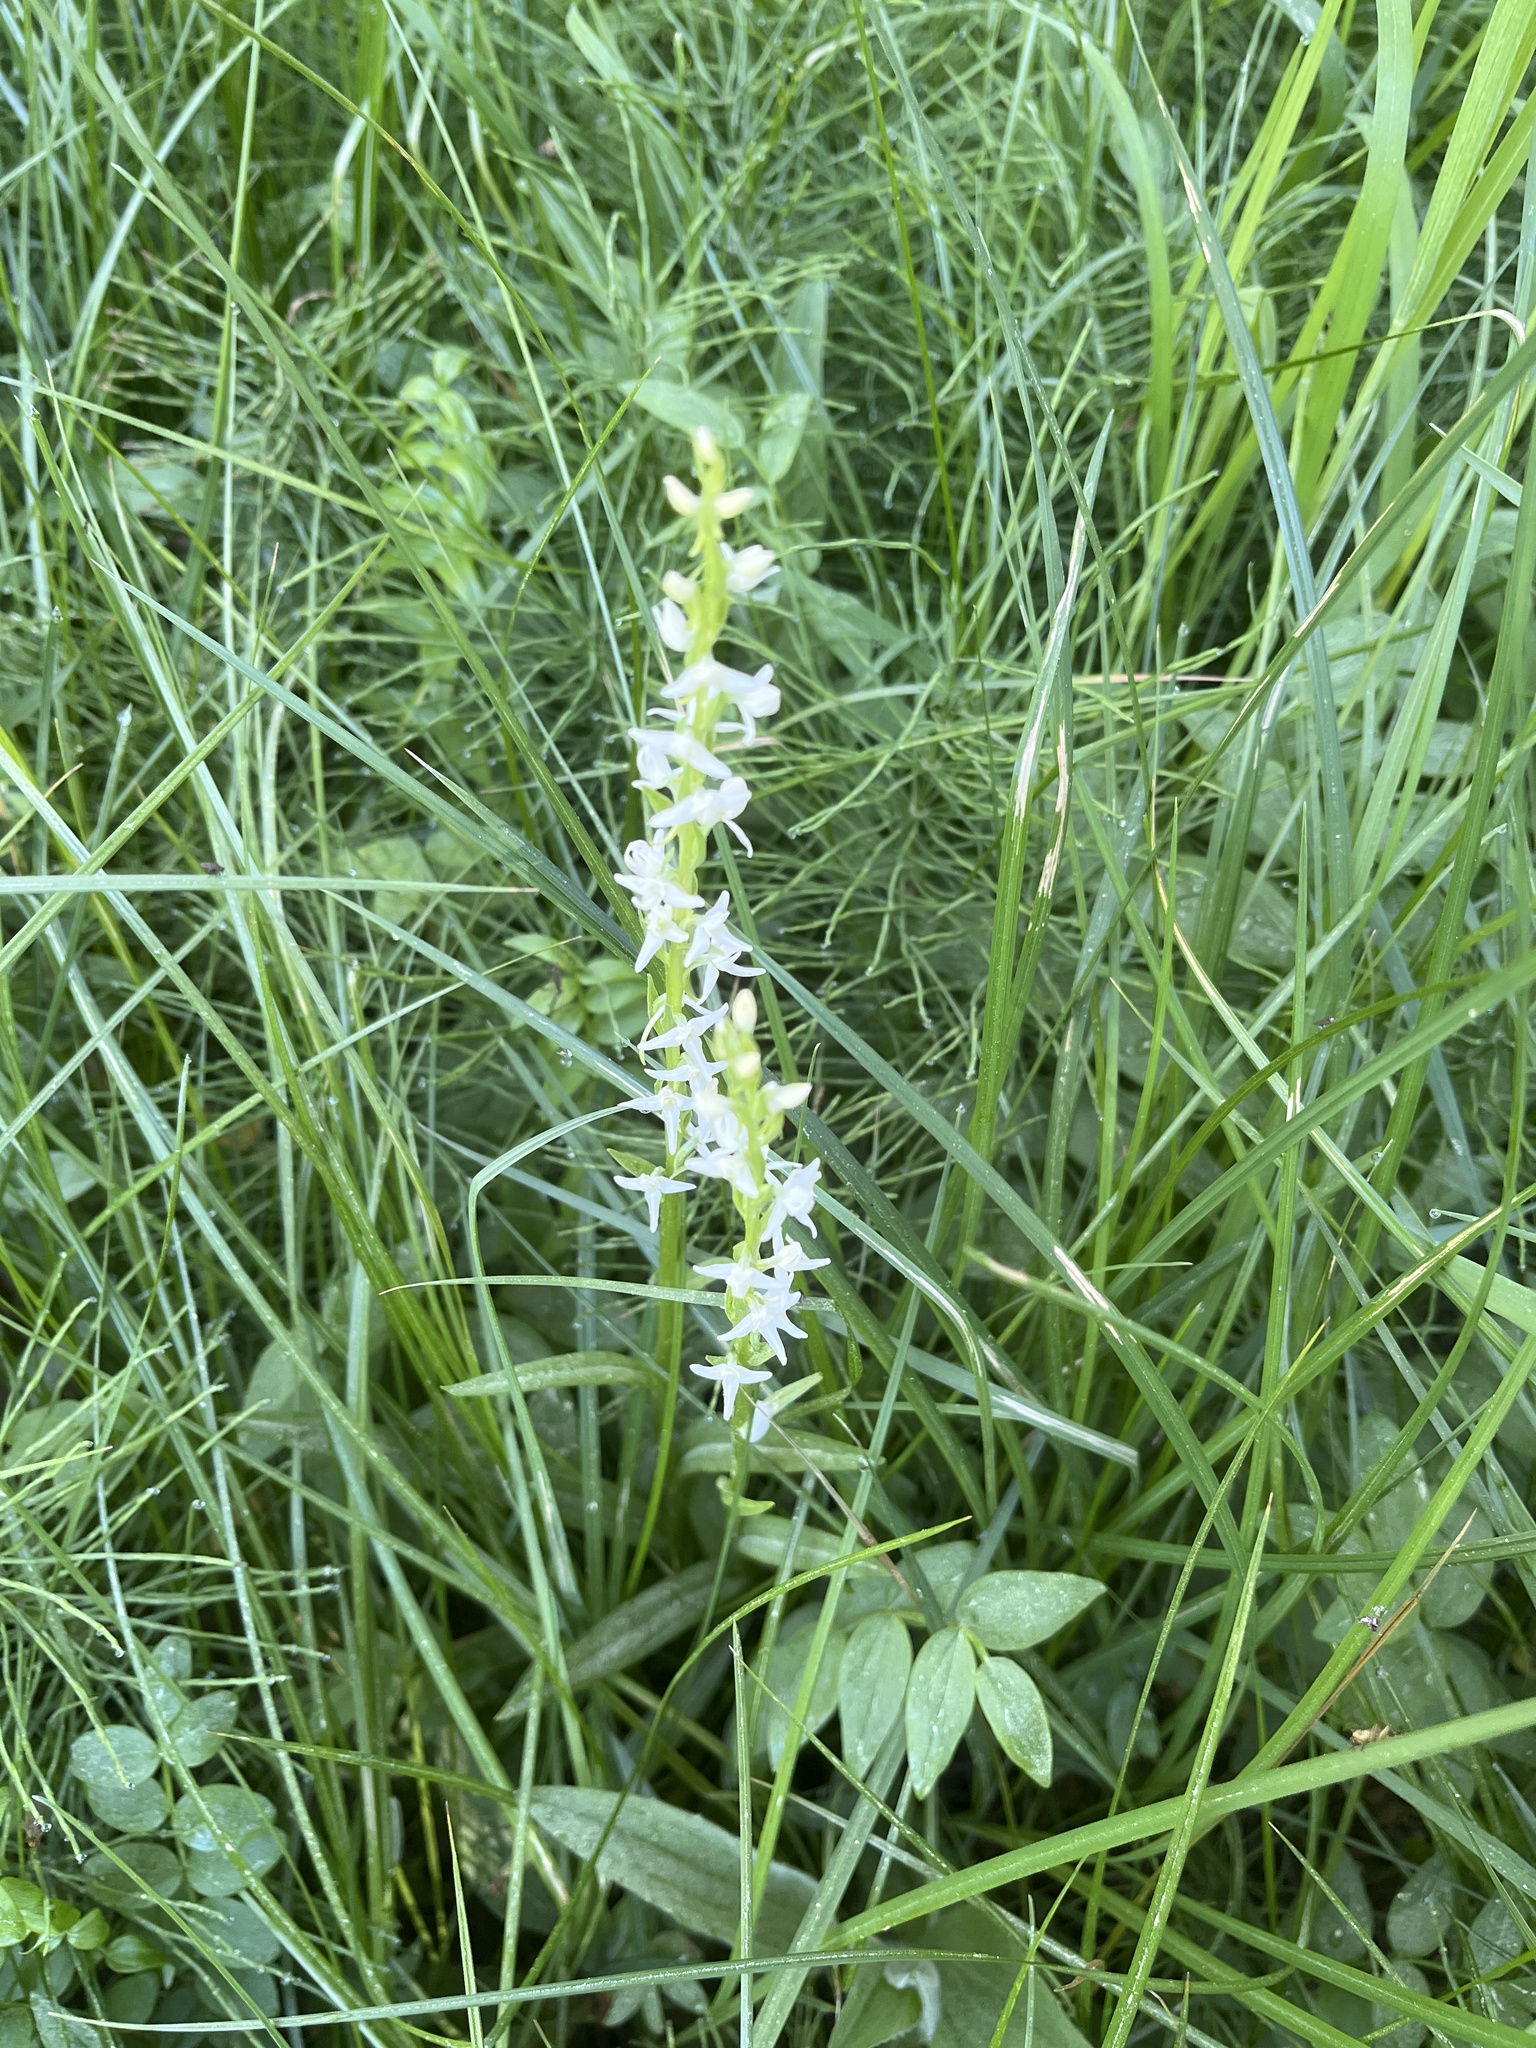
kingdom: Plantae
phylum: Tracheophyta
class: Liliopsida
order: Asparagales
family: Orchidaceae
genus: Platanthera
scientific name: Platanthera dilatata
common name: Bog candles
